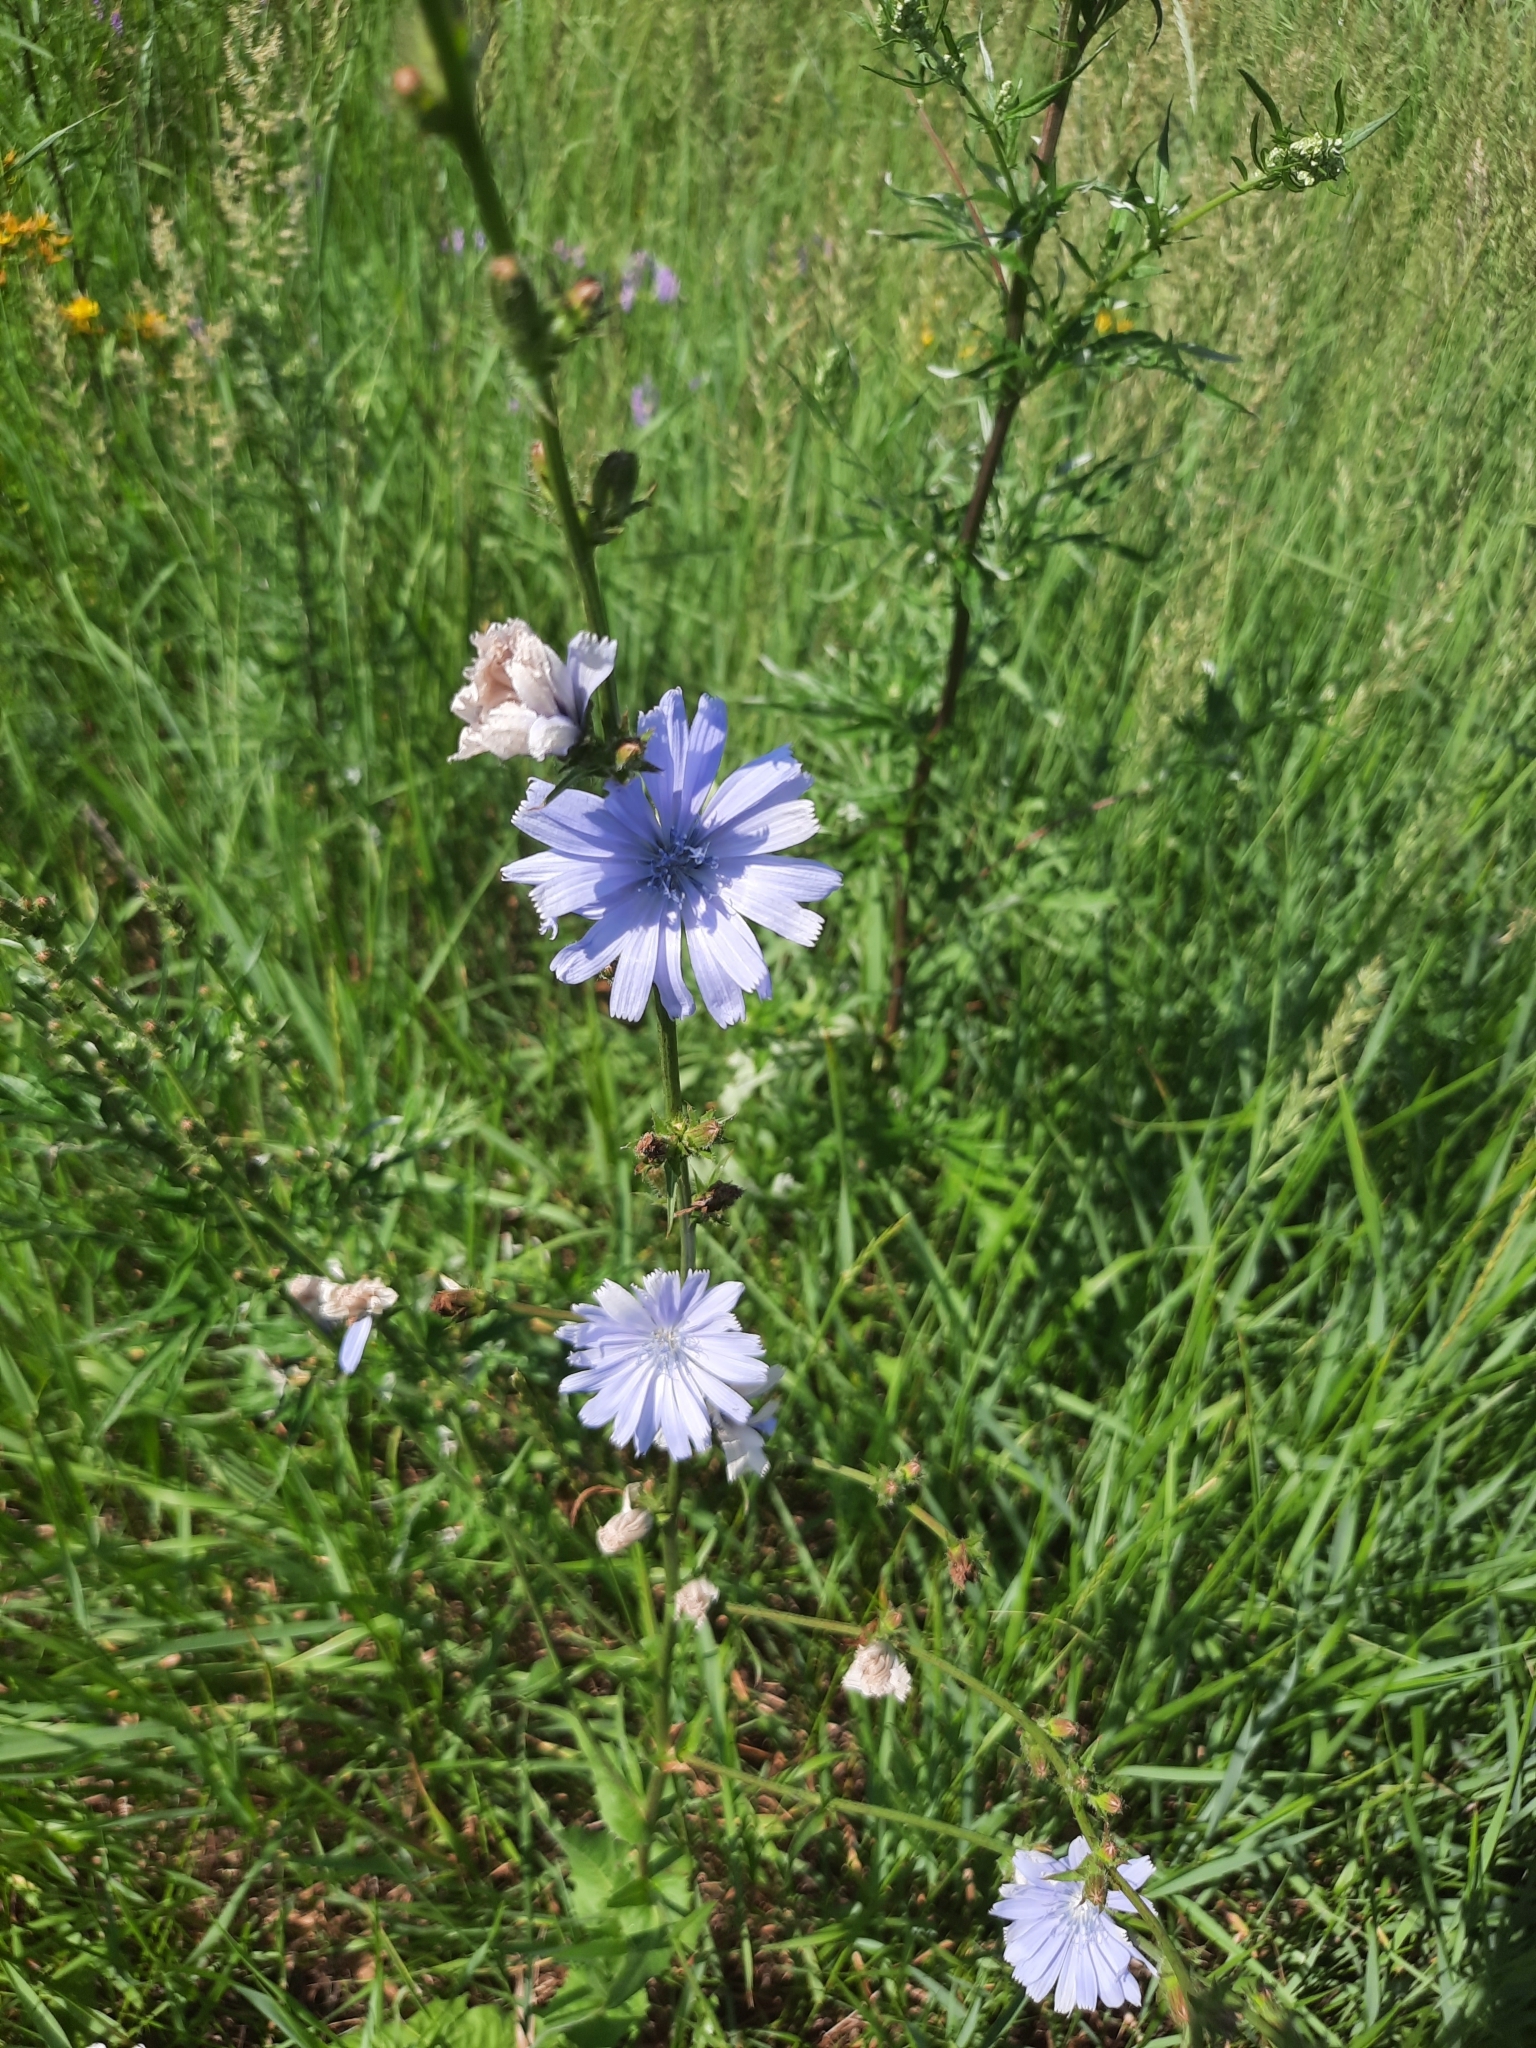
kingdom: Plantae
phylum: Tracheophyta
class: Magnoliopsida
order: Asterales
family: Asteraceae
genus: Cichorium
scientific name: Cichorium intybus
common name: Chicory
